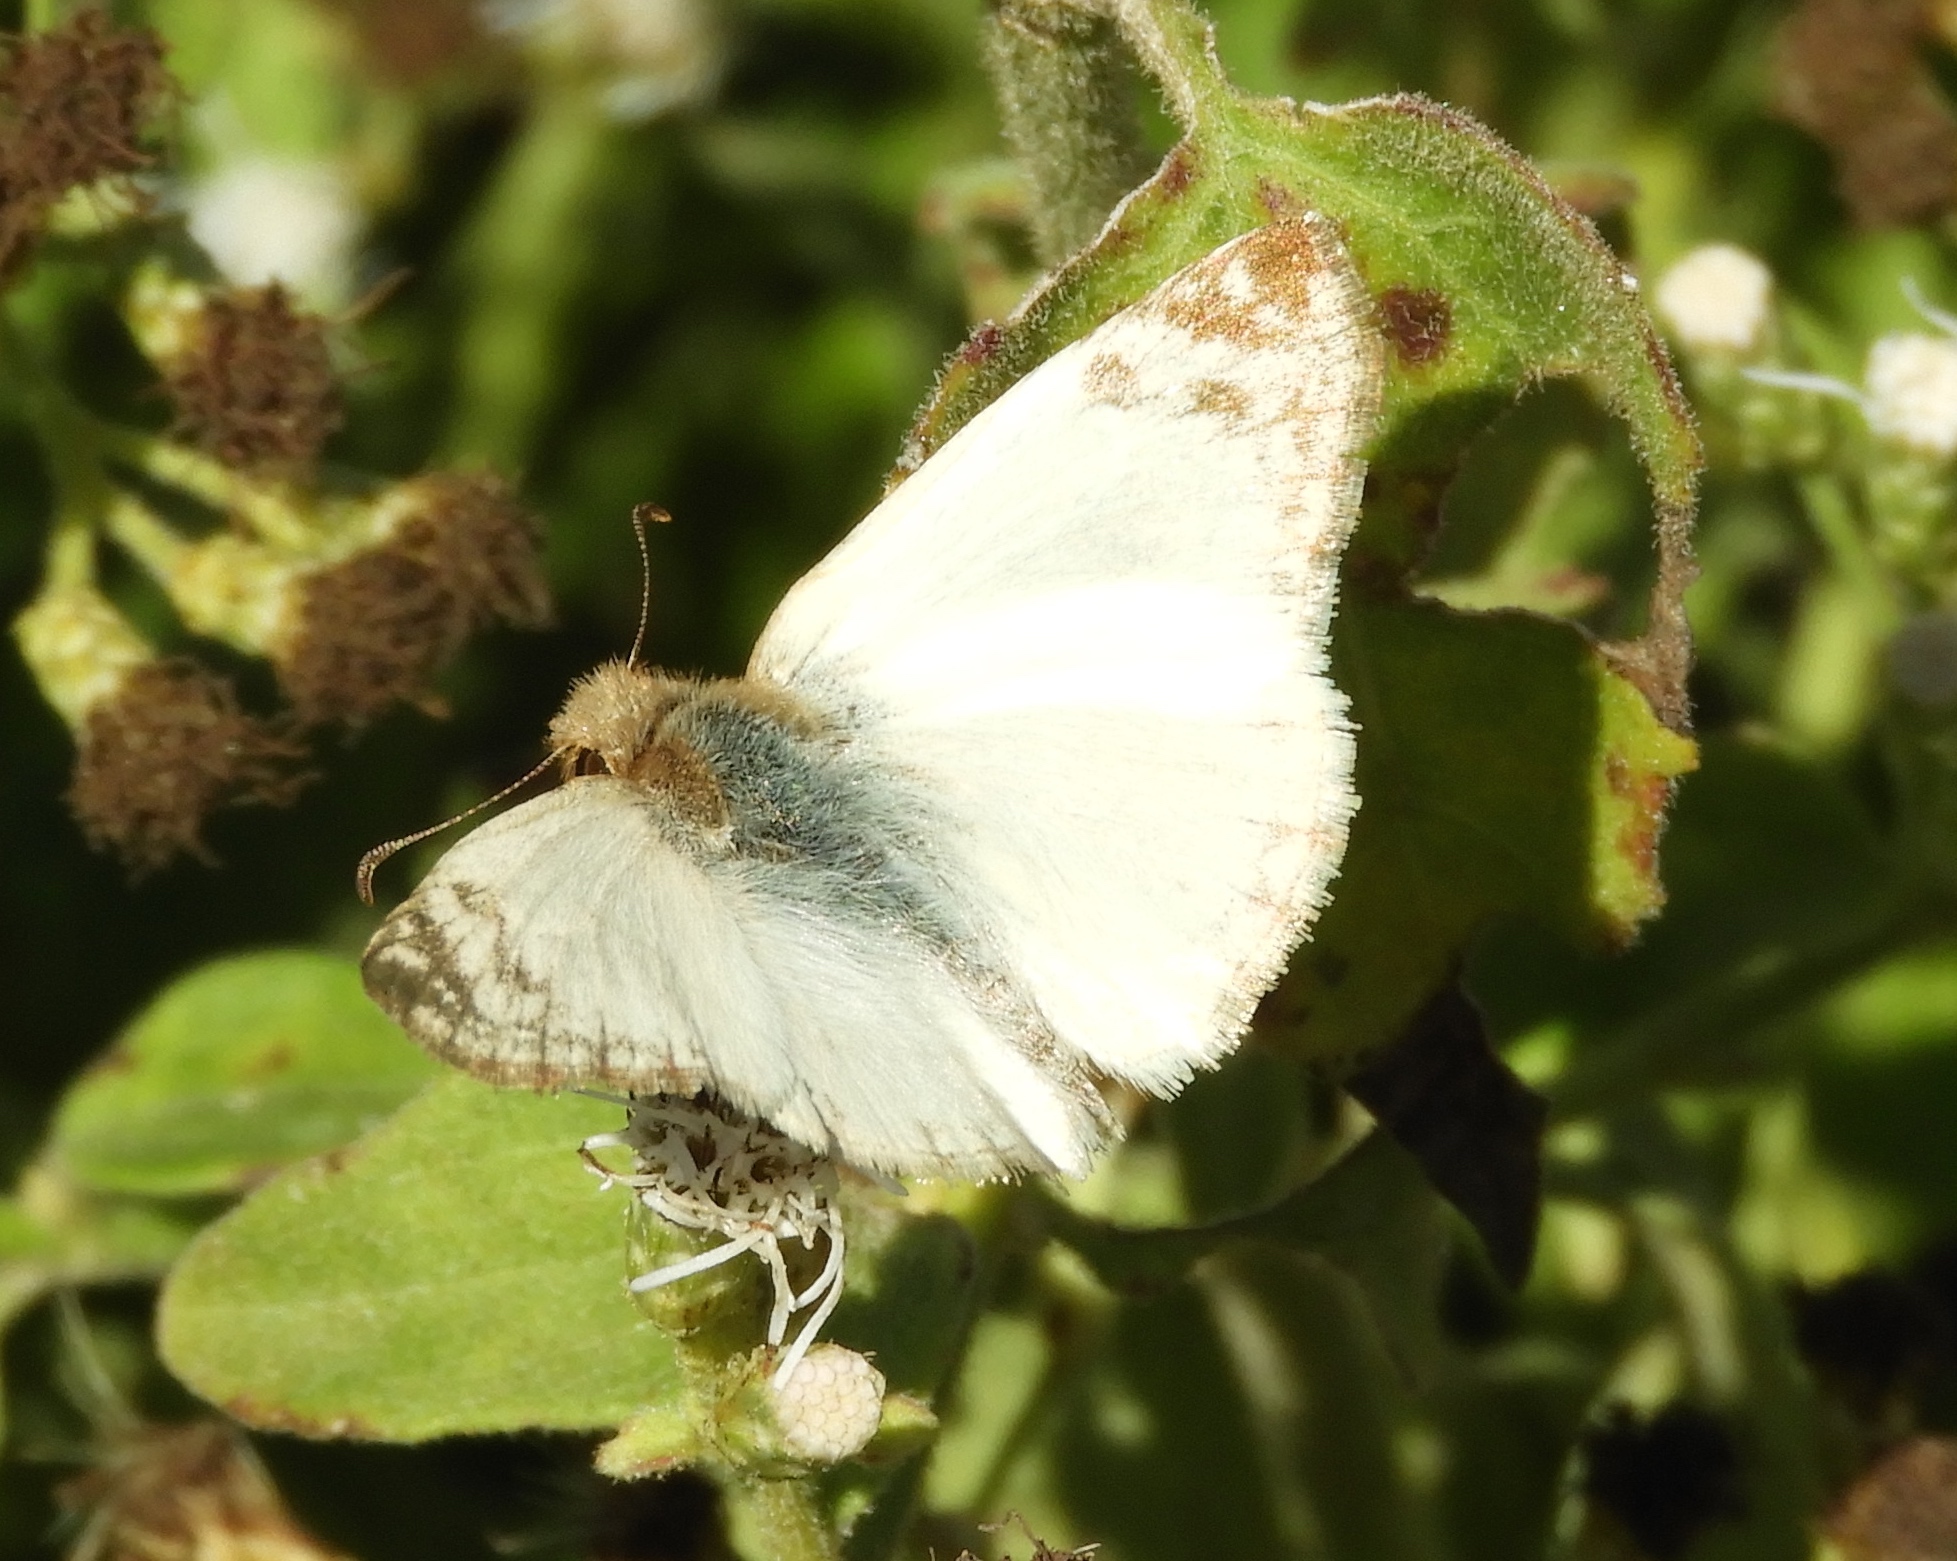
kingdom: Animalia
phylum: Arthropoda
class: Insecta
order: Lepidoptera
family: Hesperiidae
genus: Heliopetes
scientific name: Heliopetes laviana
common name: Laviana white-skipper
